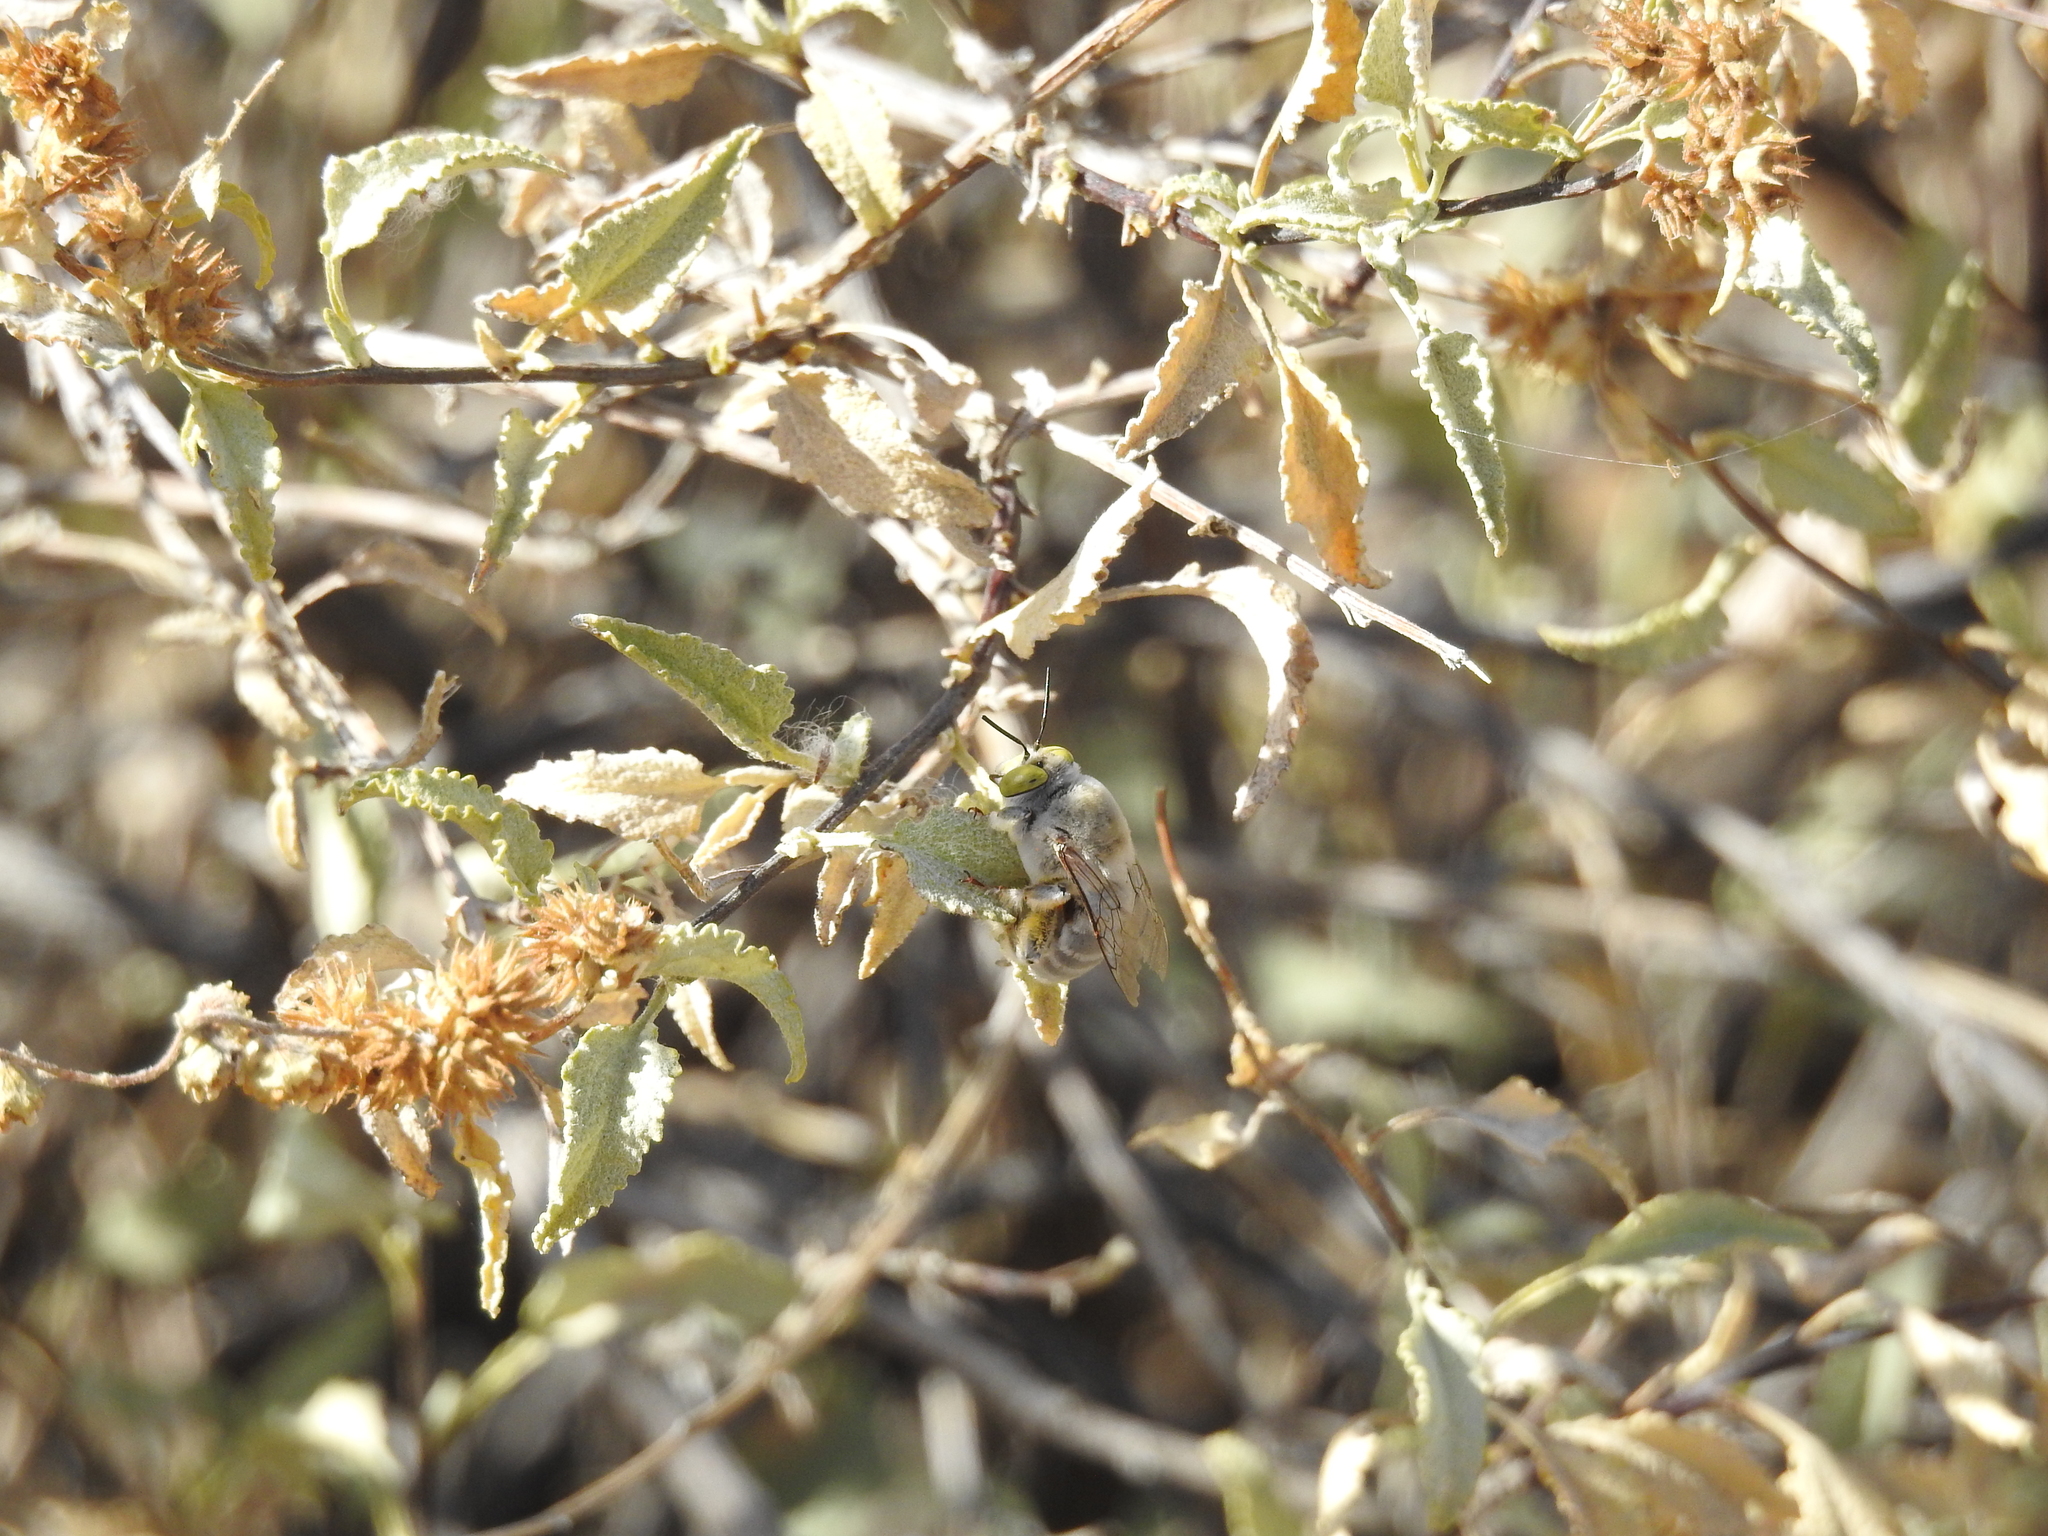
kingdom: Animalia
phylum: Arthropoda
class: Insecta
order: Hymenoptera
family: Apidae
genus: Centris
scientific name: Centris pallida
